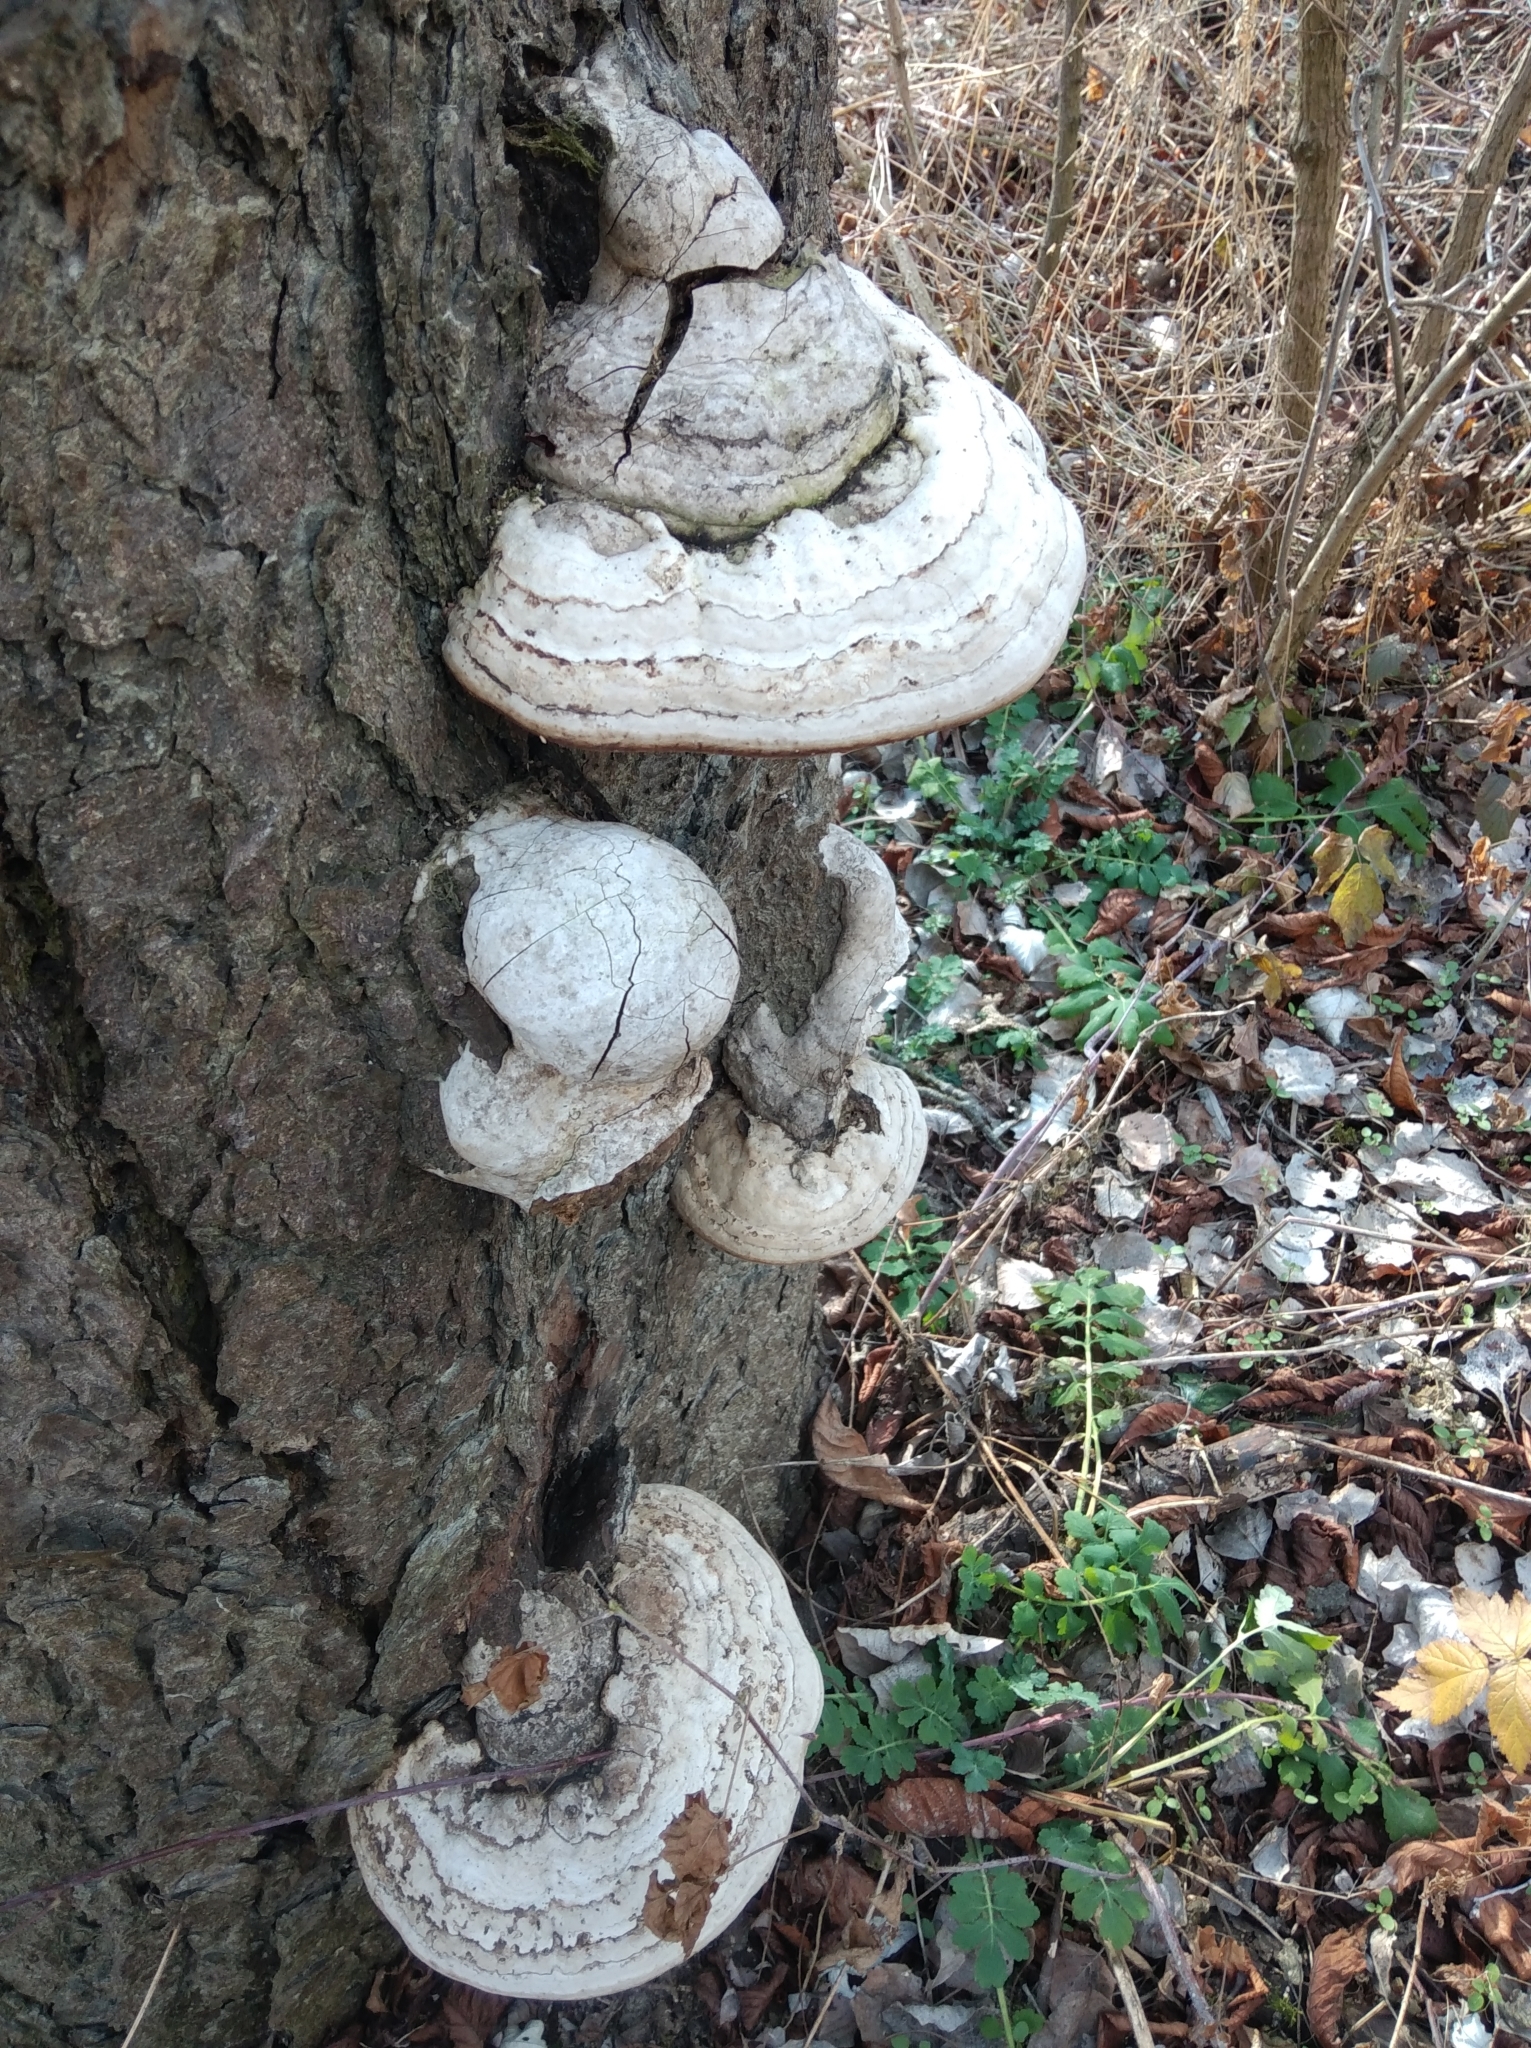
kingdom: Fungi
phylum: Basidiomycota
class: Agaricomycetes
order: Polyporales
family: Polyporaceae
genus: Fomes
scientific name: Fomes fomentarius
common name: Hoof fungus
